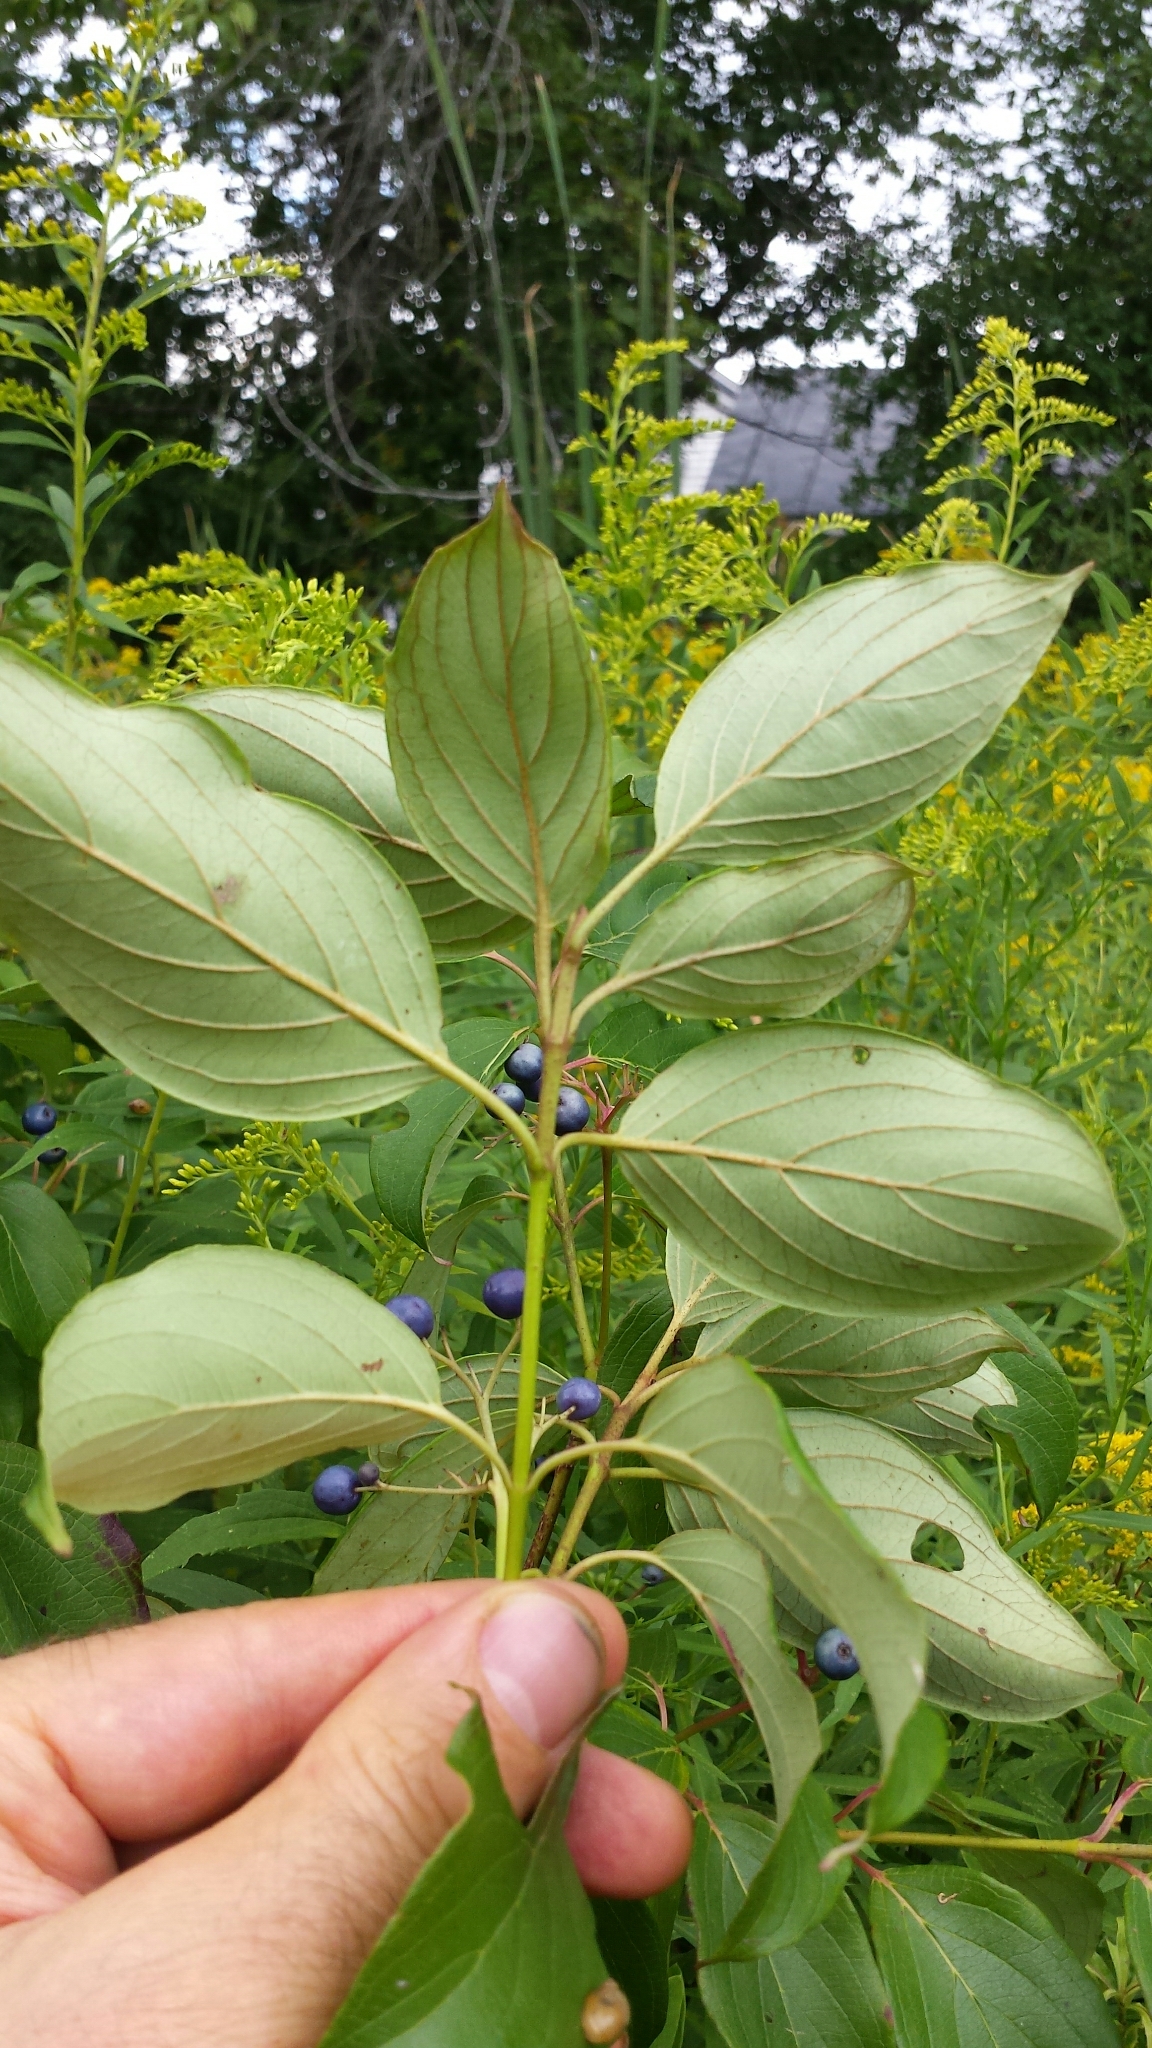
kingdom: Plantae
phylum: Tracheophyta
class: Magnoliopsida
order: Cornales
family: Cornaceae
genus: Cornus
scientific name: Cornus amomum
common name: Silky dogwood
